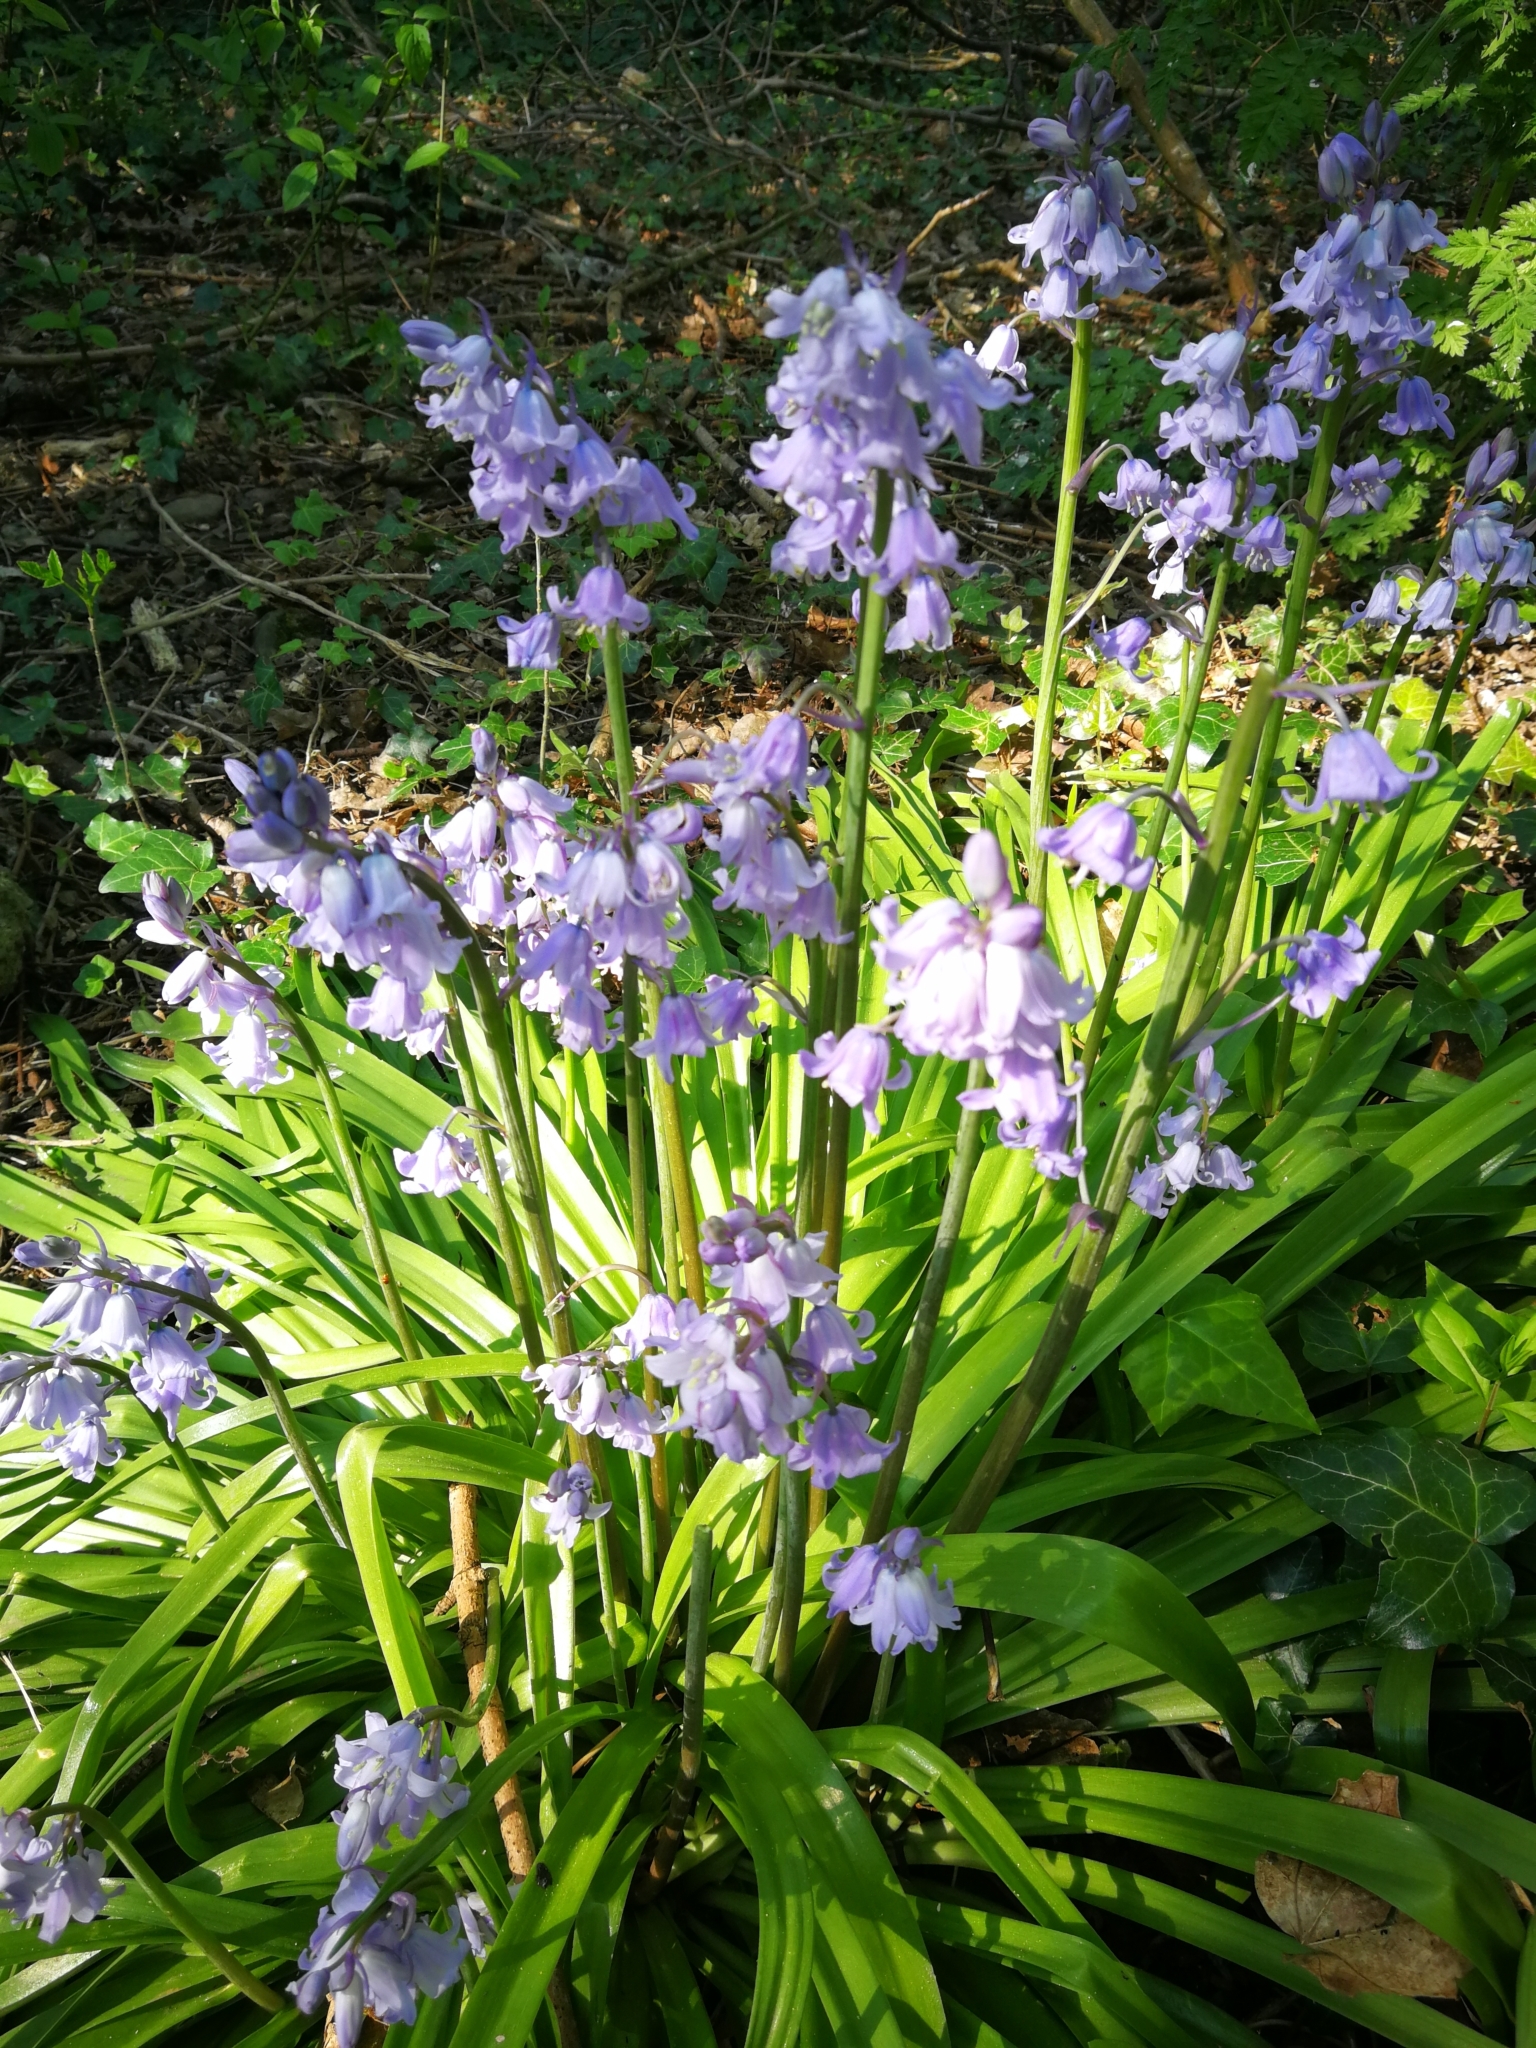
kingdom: Plantae
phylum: Tracheophyta
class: Liliopsida
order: Asparagales
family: Asparagaceae
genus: Hyacinthoides
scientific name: Hyacinthoides hispanica
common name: Spanish bluebell
